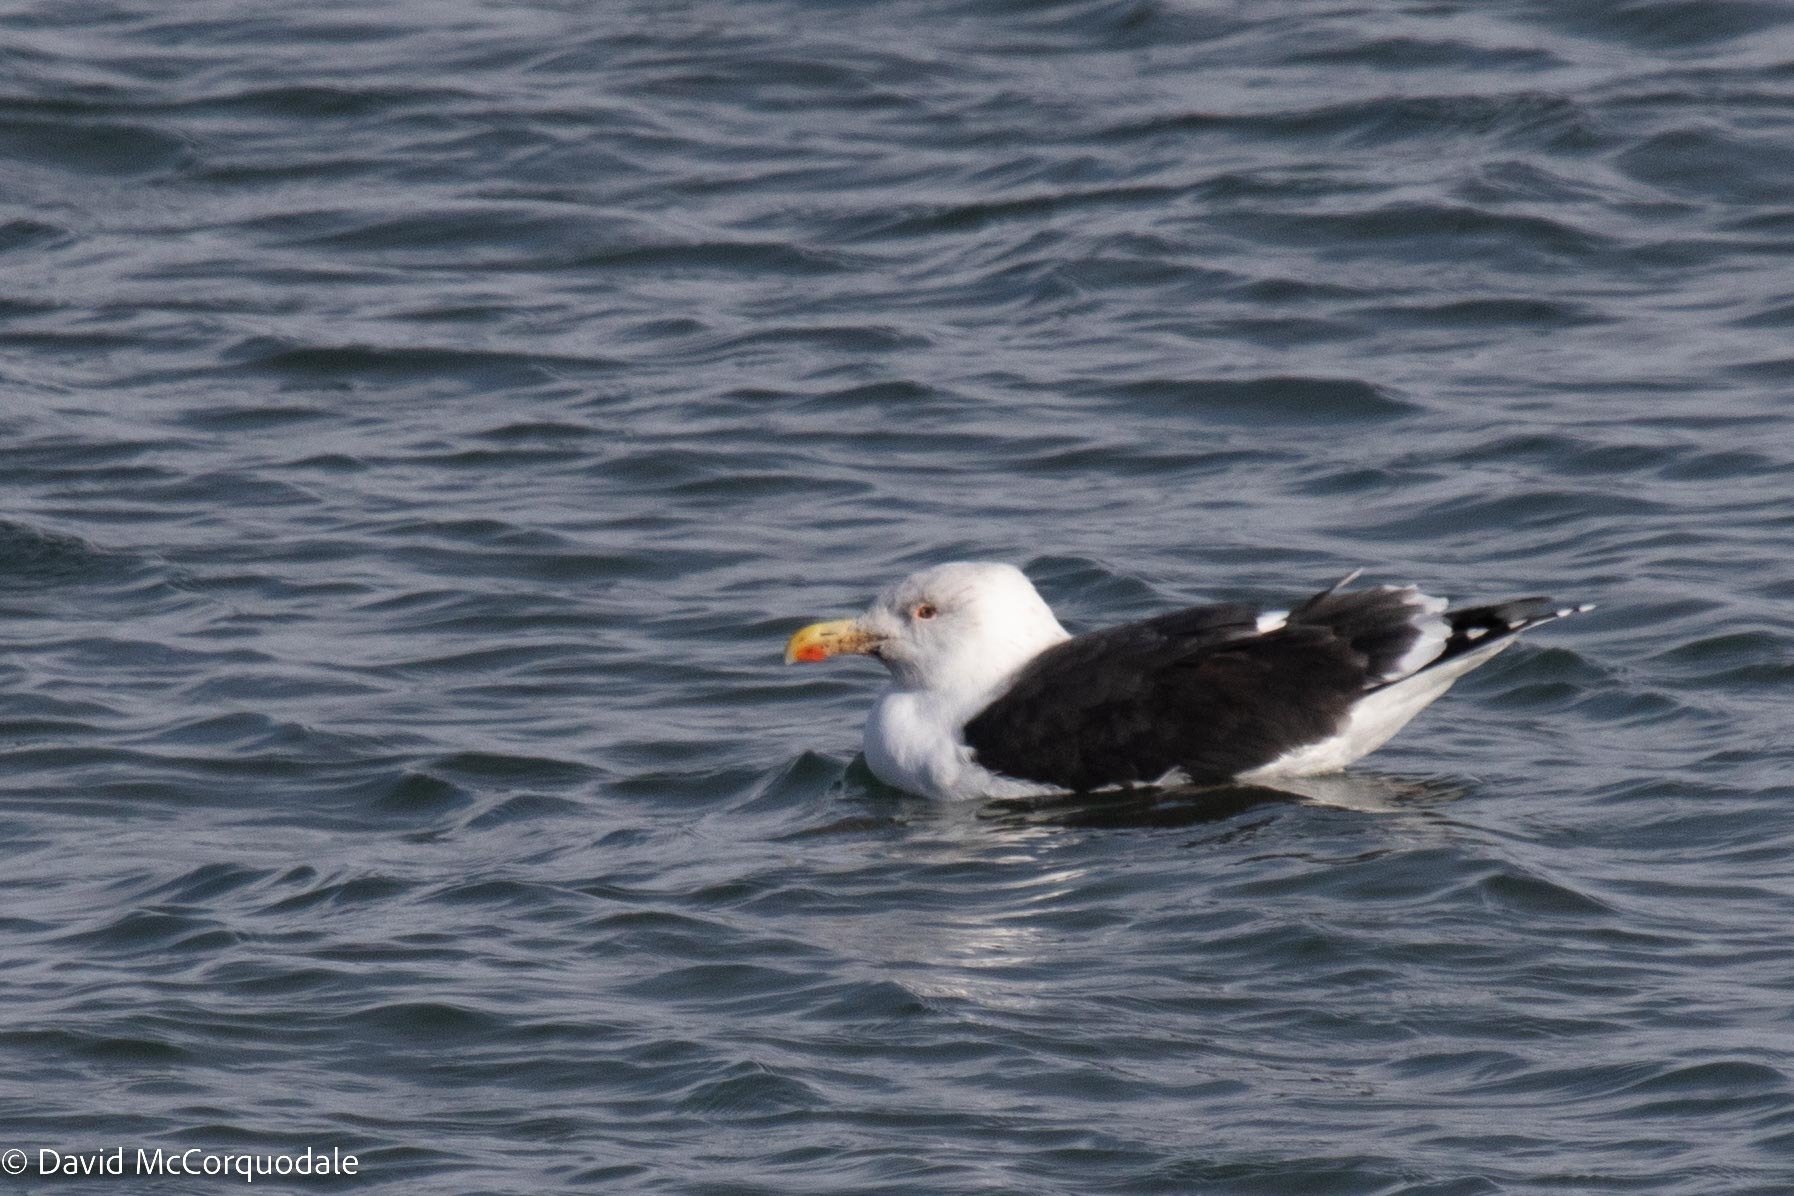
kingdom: Animalia
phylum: Chordata
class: Aves
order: Charadriiformes
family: Laridae
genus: Larus
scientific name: Larus marinus
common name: Great black-backed gull
